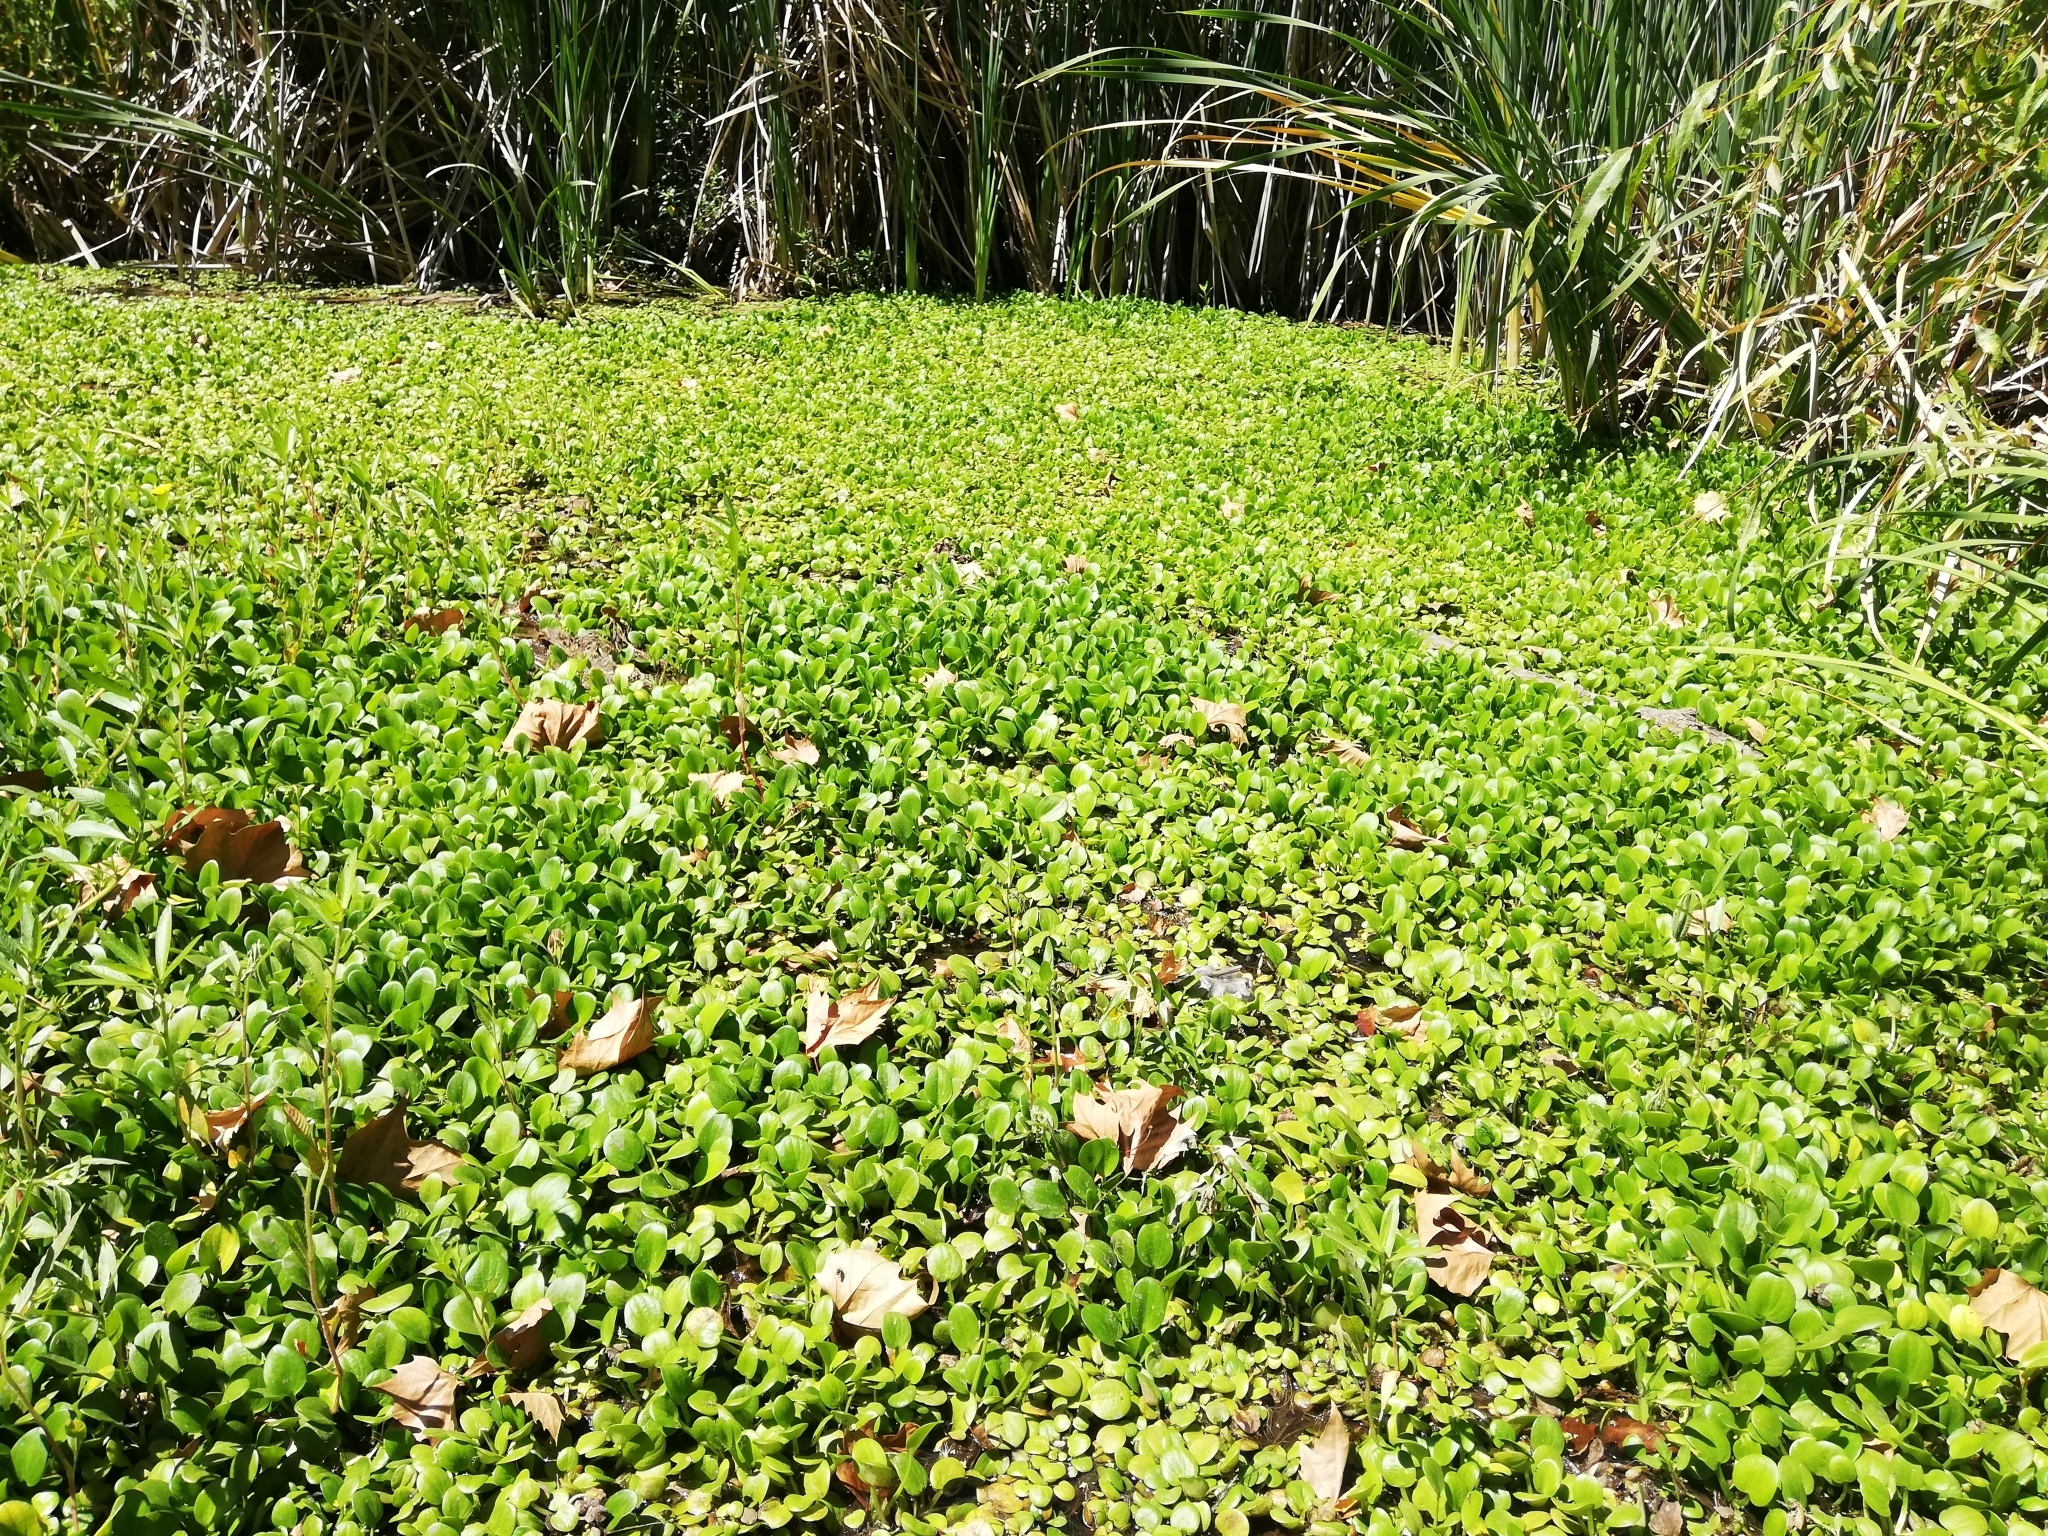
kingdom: Plantae
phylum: Tracheophyta
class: Liliopsida
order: Alismatales
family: Hydrocharitaceae
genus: Hydrocharis
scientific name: Hydrocharis laevigata
